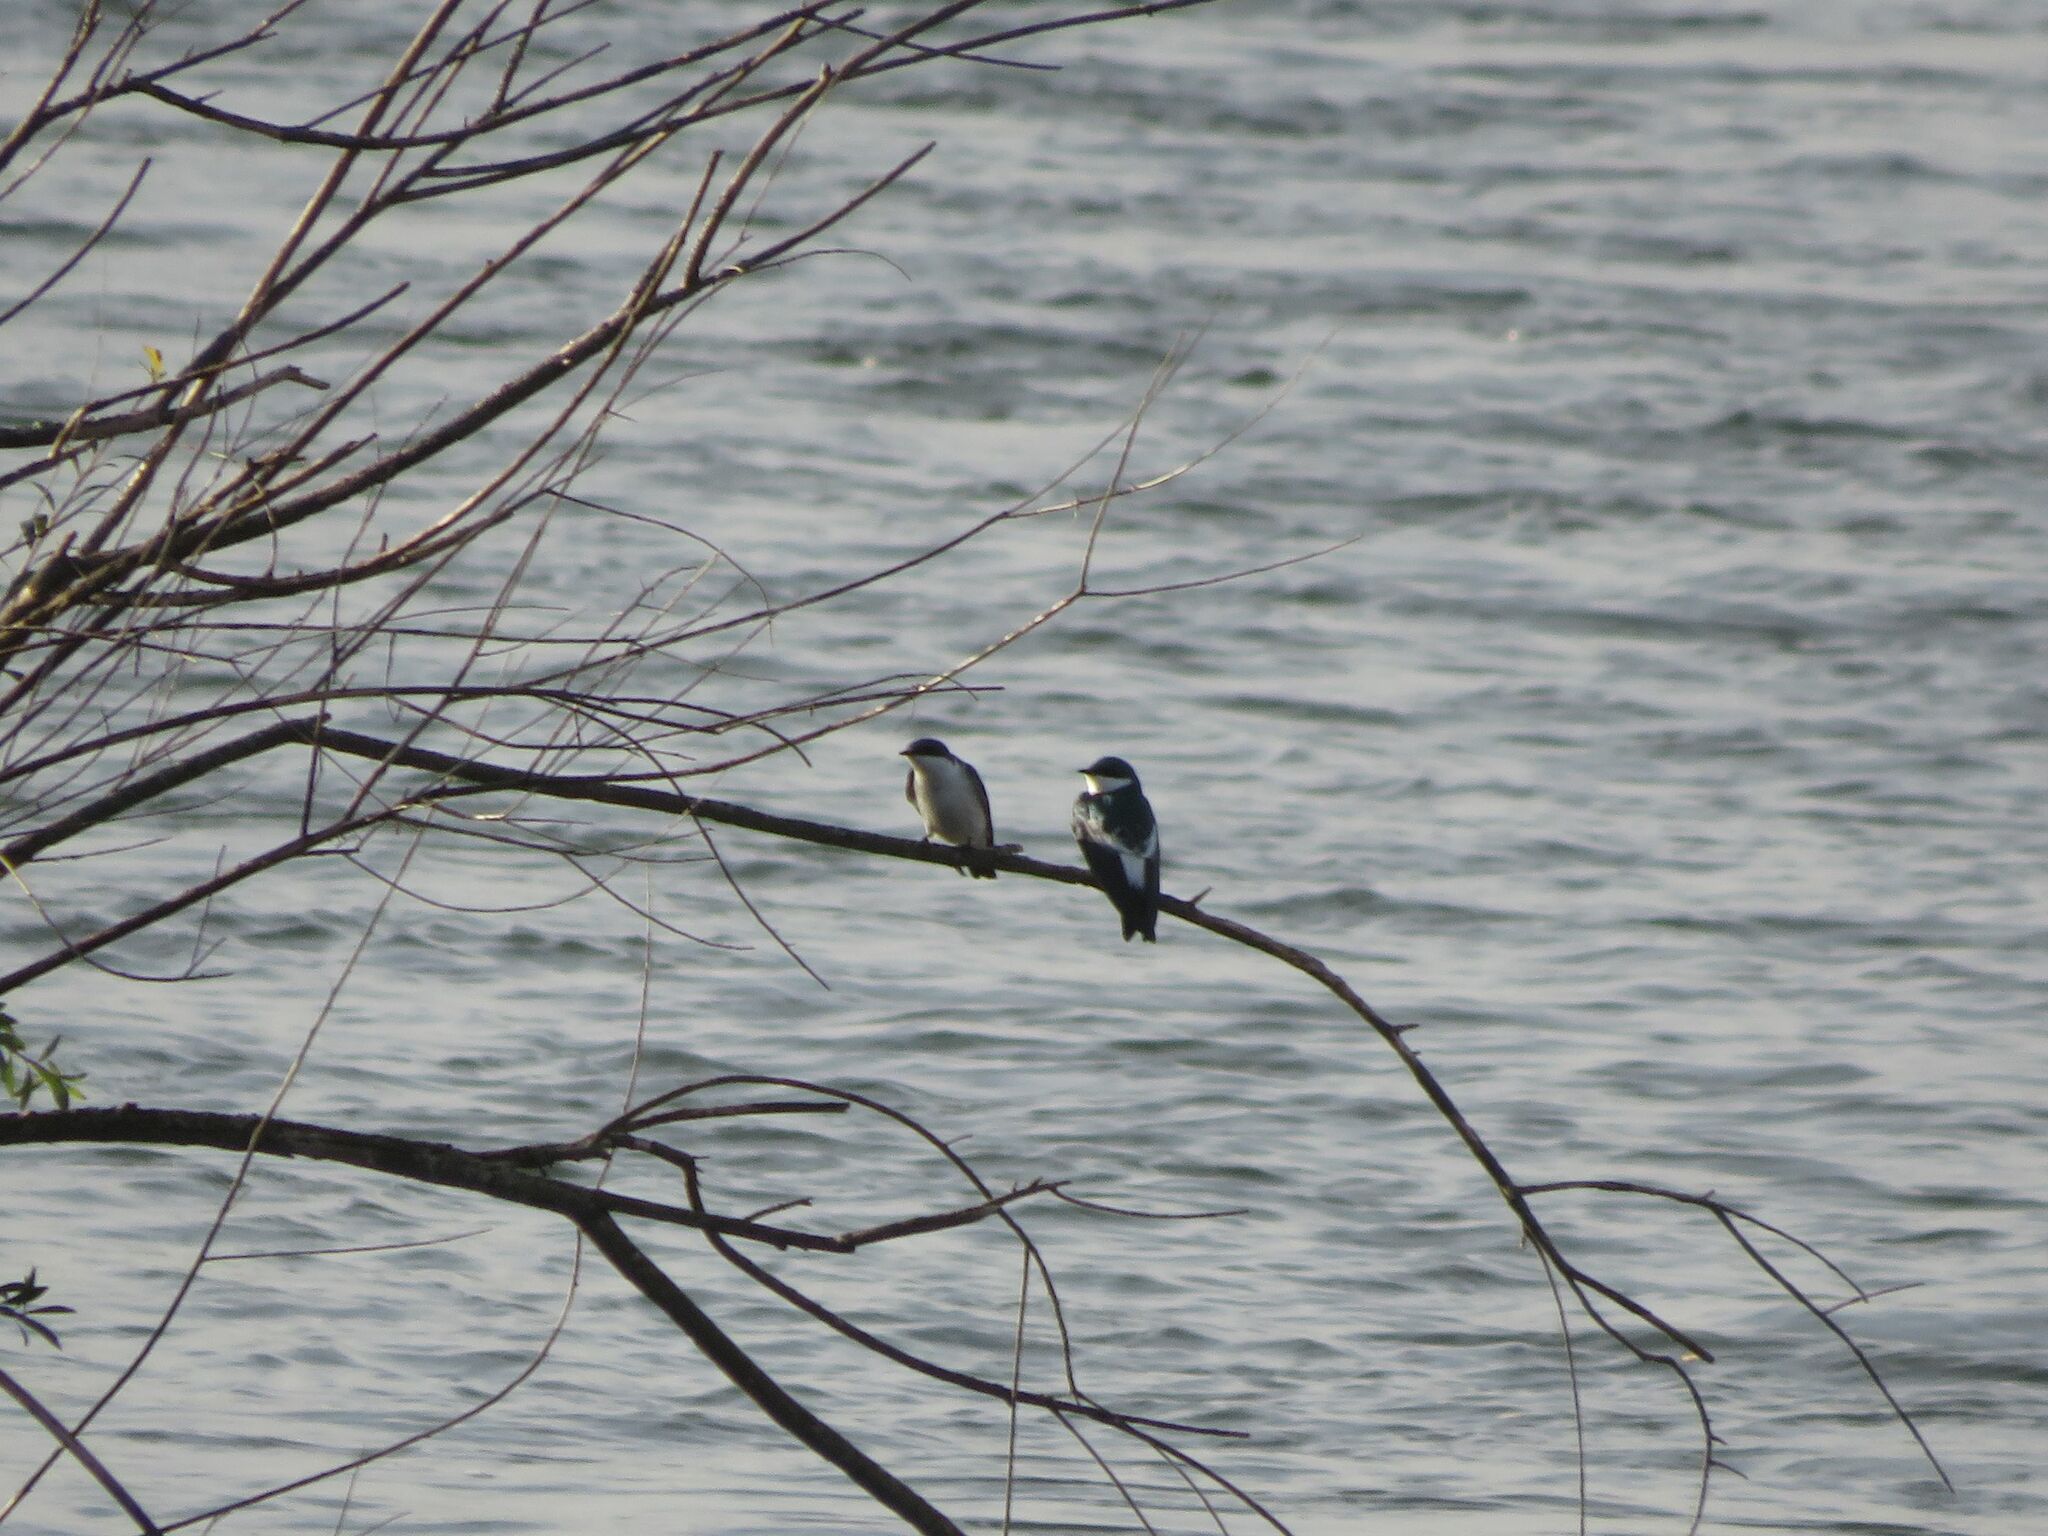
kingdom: Animalia
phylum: Chordata
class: Aves
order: Passeriformes
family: Hirundinidae
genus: Tachycineta
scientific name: Tachycineta albiventer
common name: White-winged swallow
